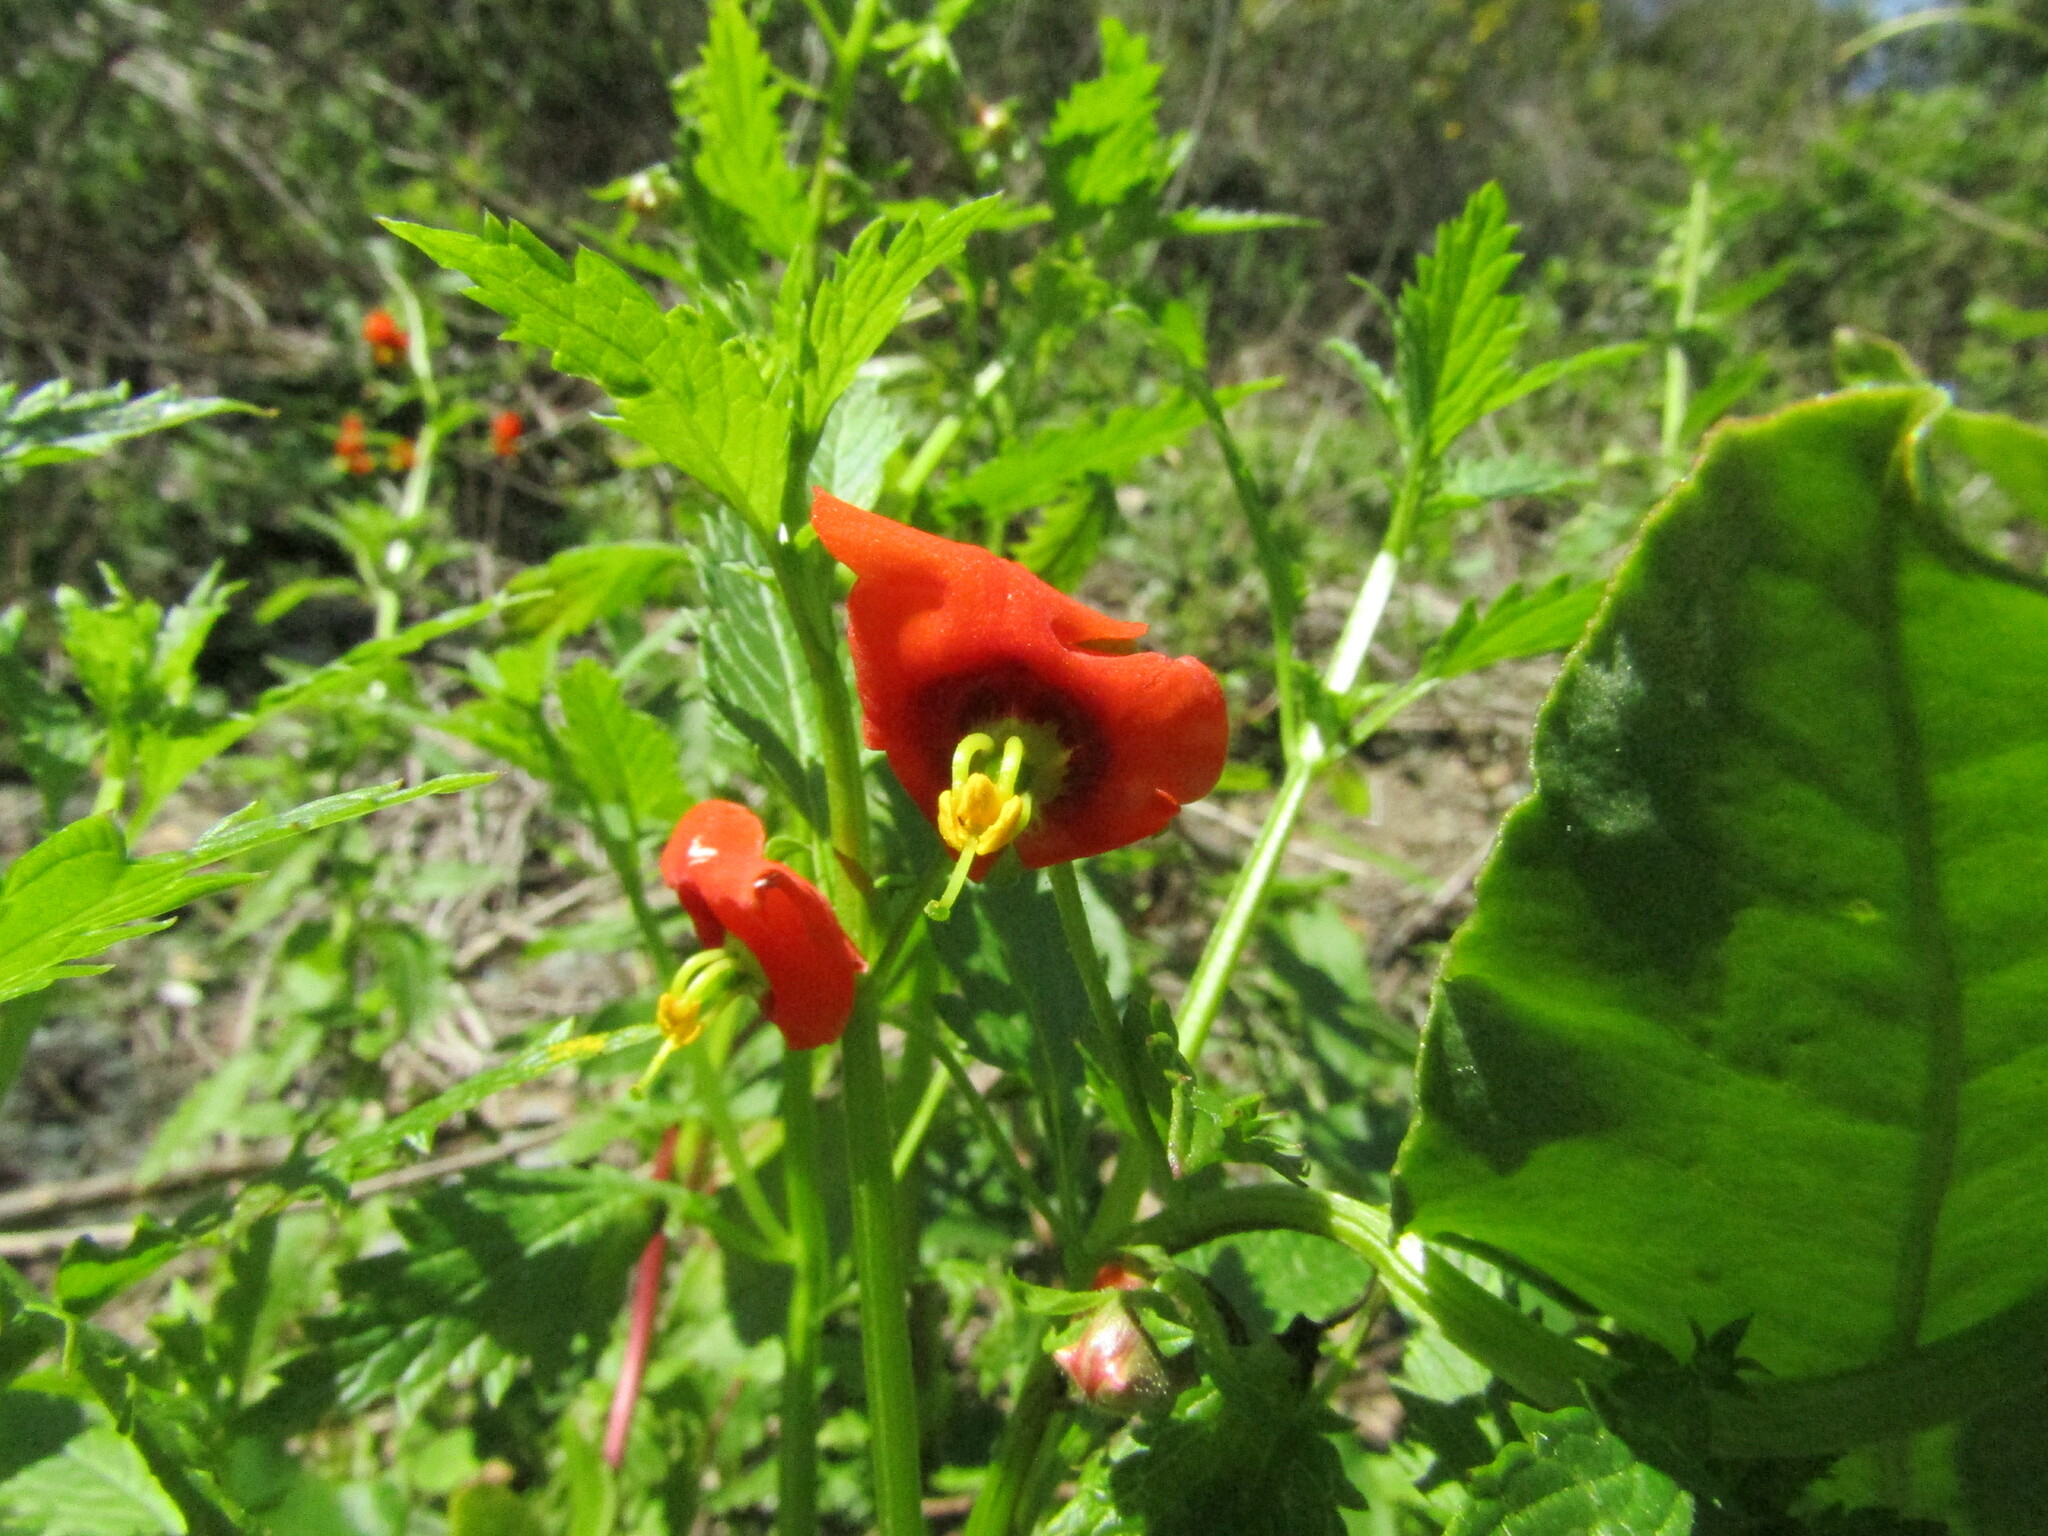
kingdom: Plantae
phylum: Tracheophyta
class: Magnoliopsida
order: Lamiales
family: Scrophulariaceae
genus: Alonsoa
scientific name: Alonsoa meridionalis
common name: Maskflower
